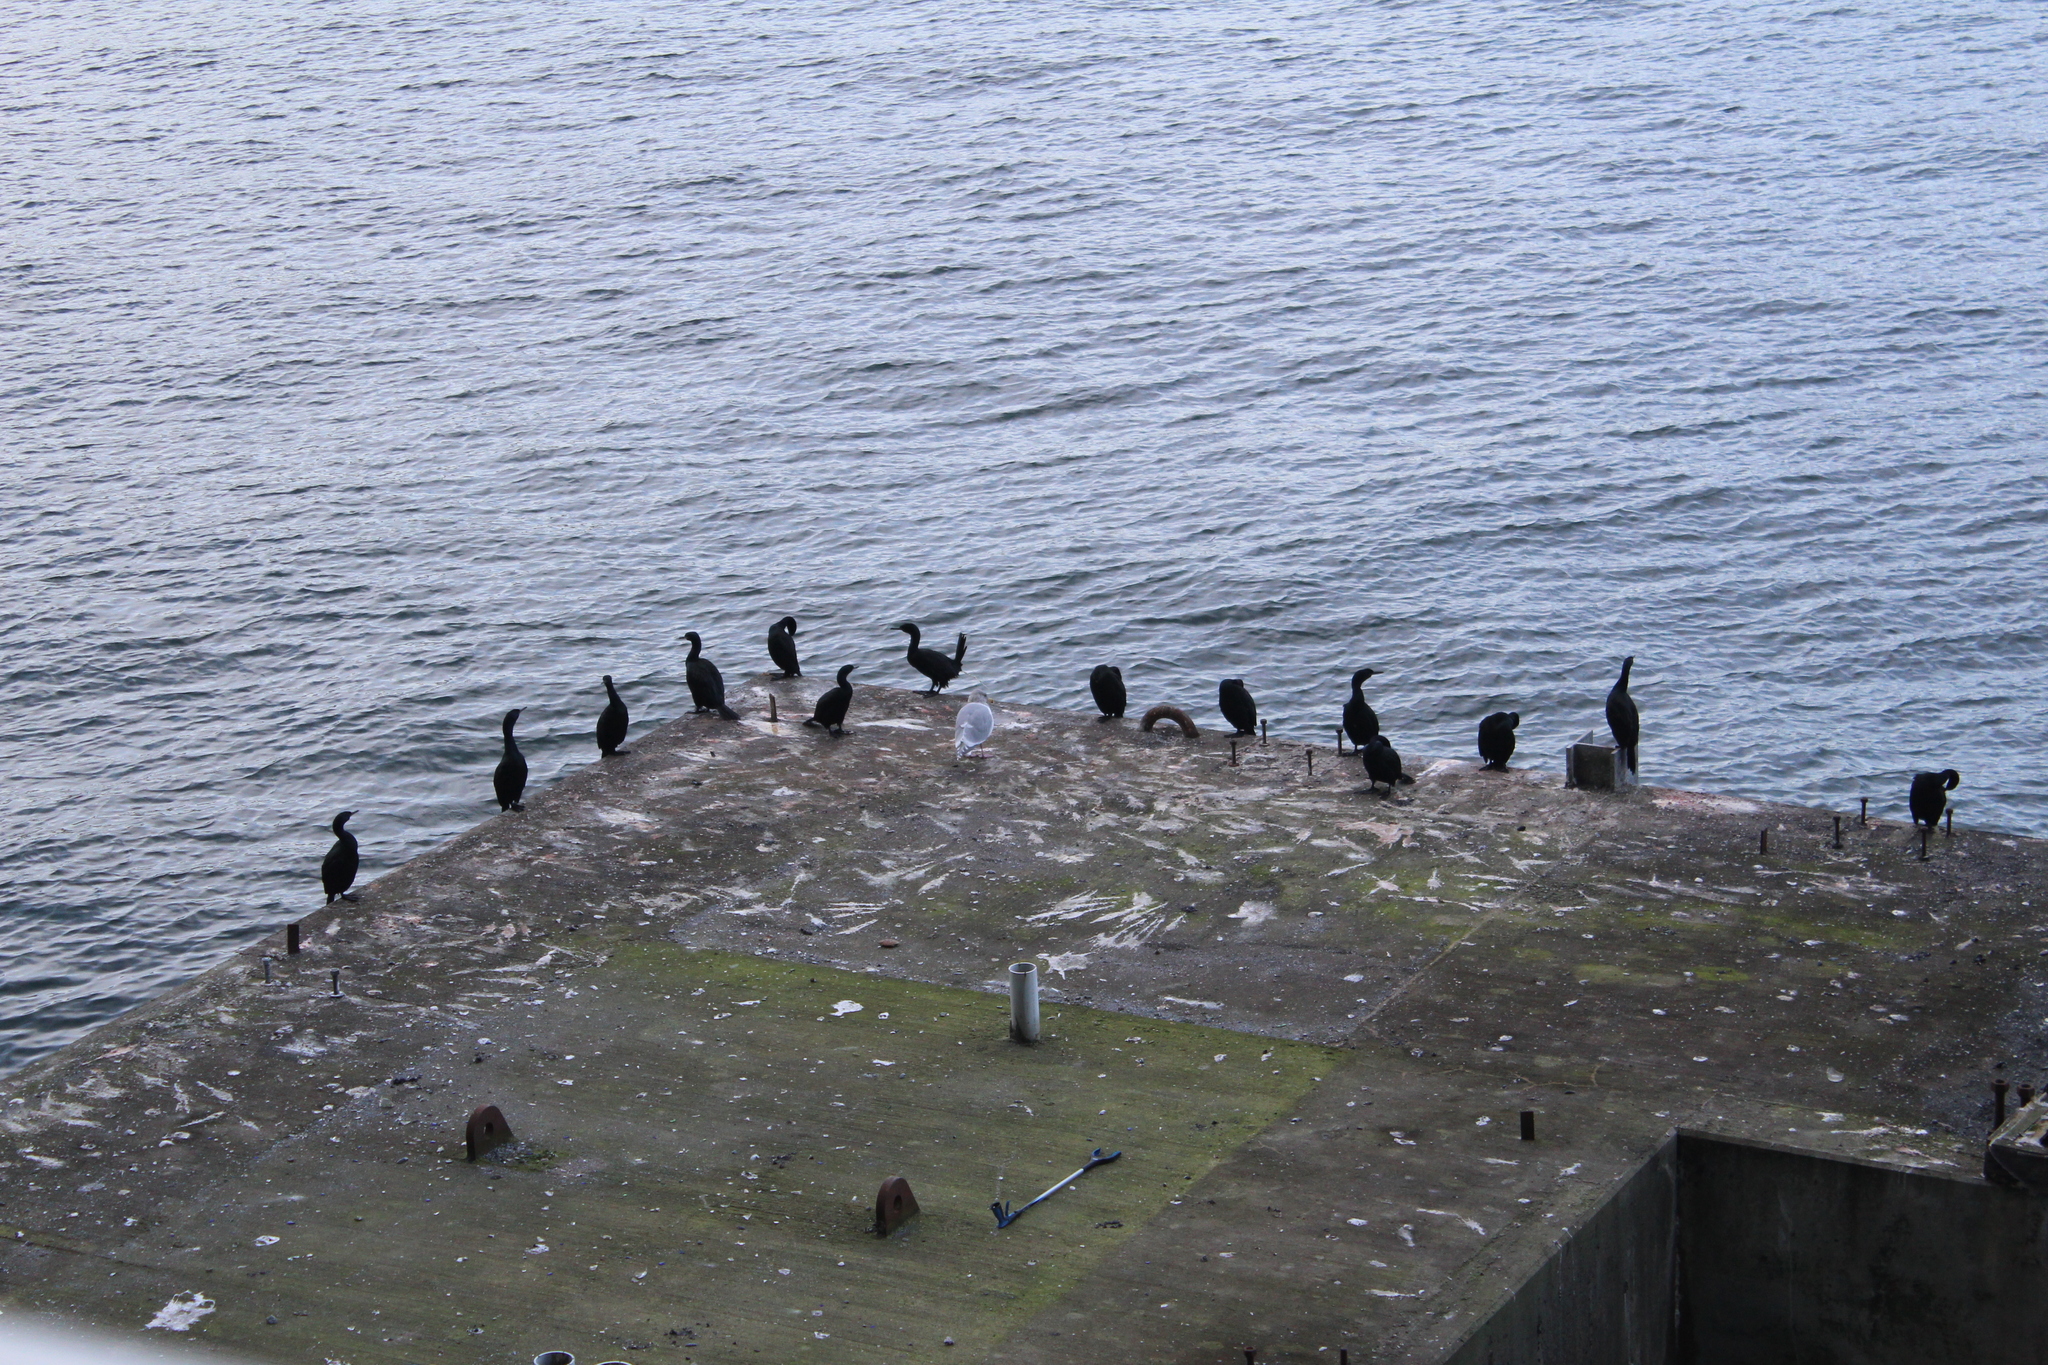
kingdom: Animalia
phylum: Chordata
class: Aves
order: Suliformes
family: Phalacrocoracidae
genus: Phalacrocorax
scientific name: Phalacrocorax pelagicus
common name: Pelagic cormorant
